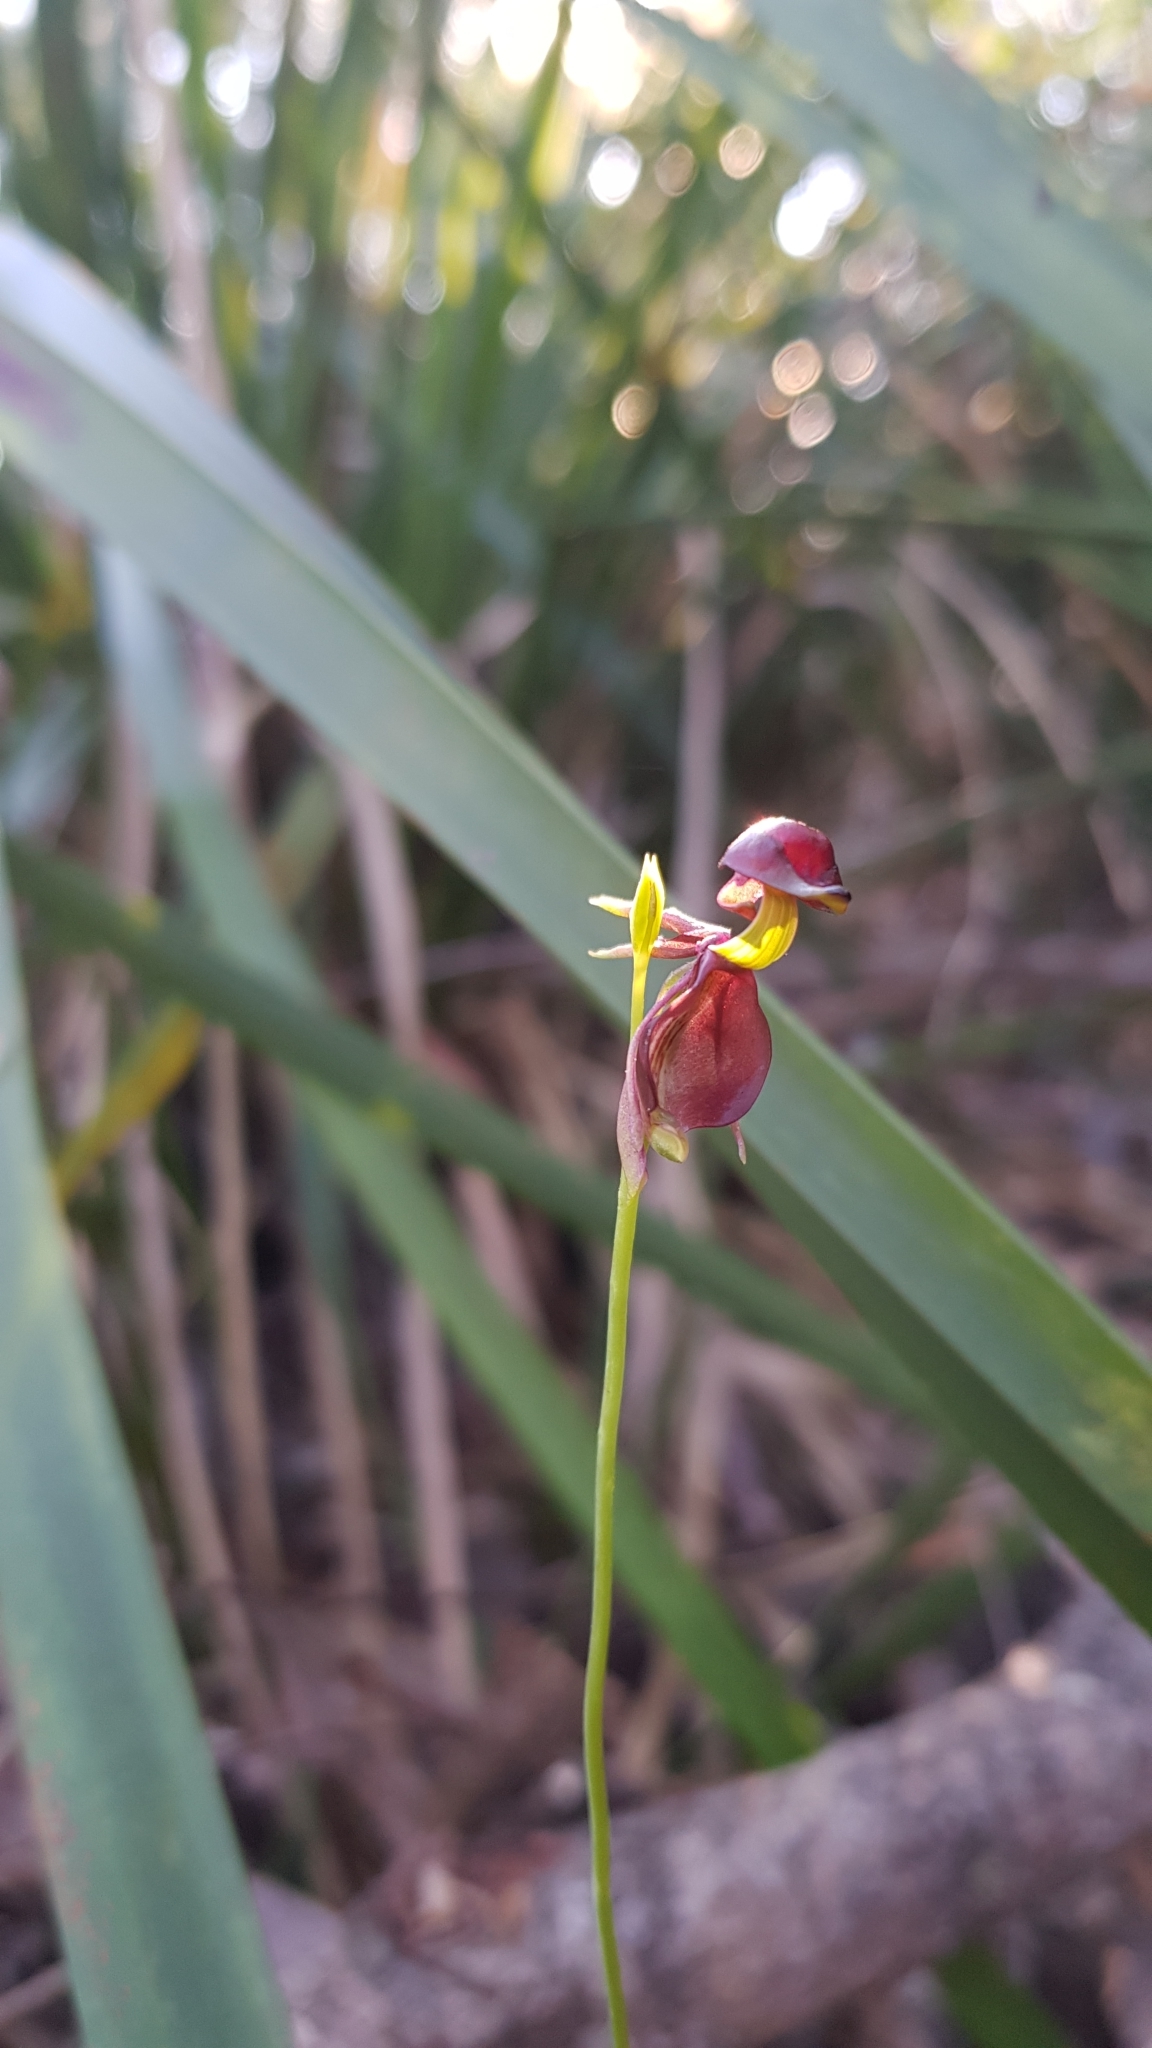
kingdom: Plantae
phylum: Tracheophyta
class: Liliopsida
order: Asparagales
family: Orchidaceae
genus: Caleana
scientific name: Caleana major
